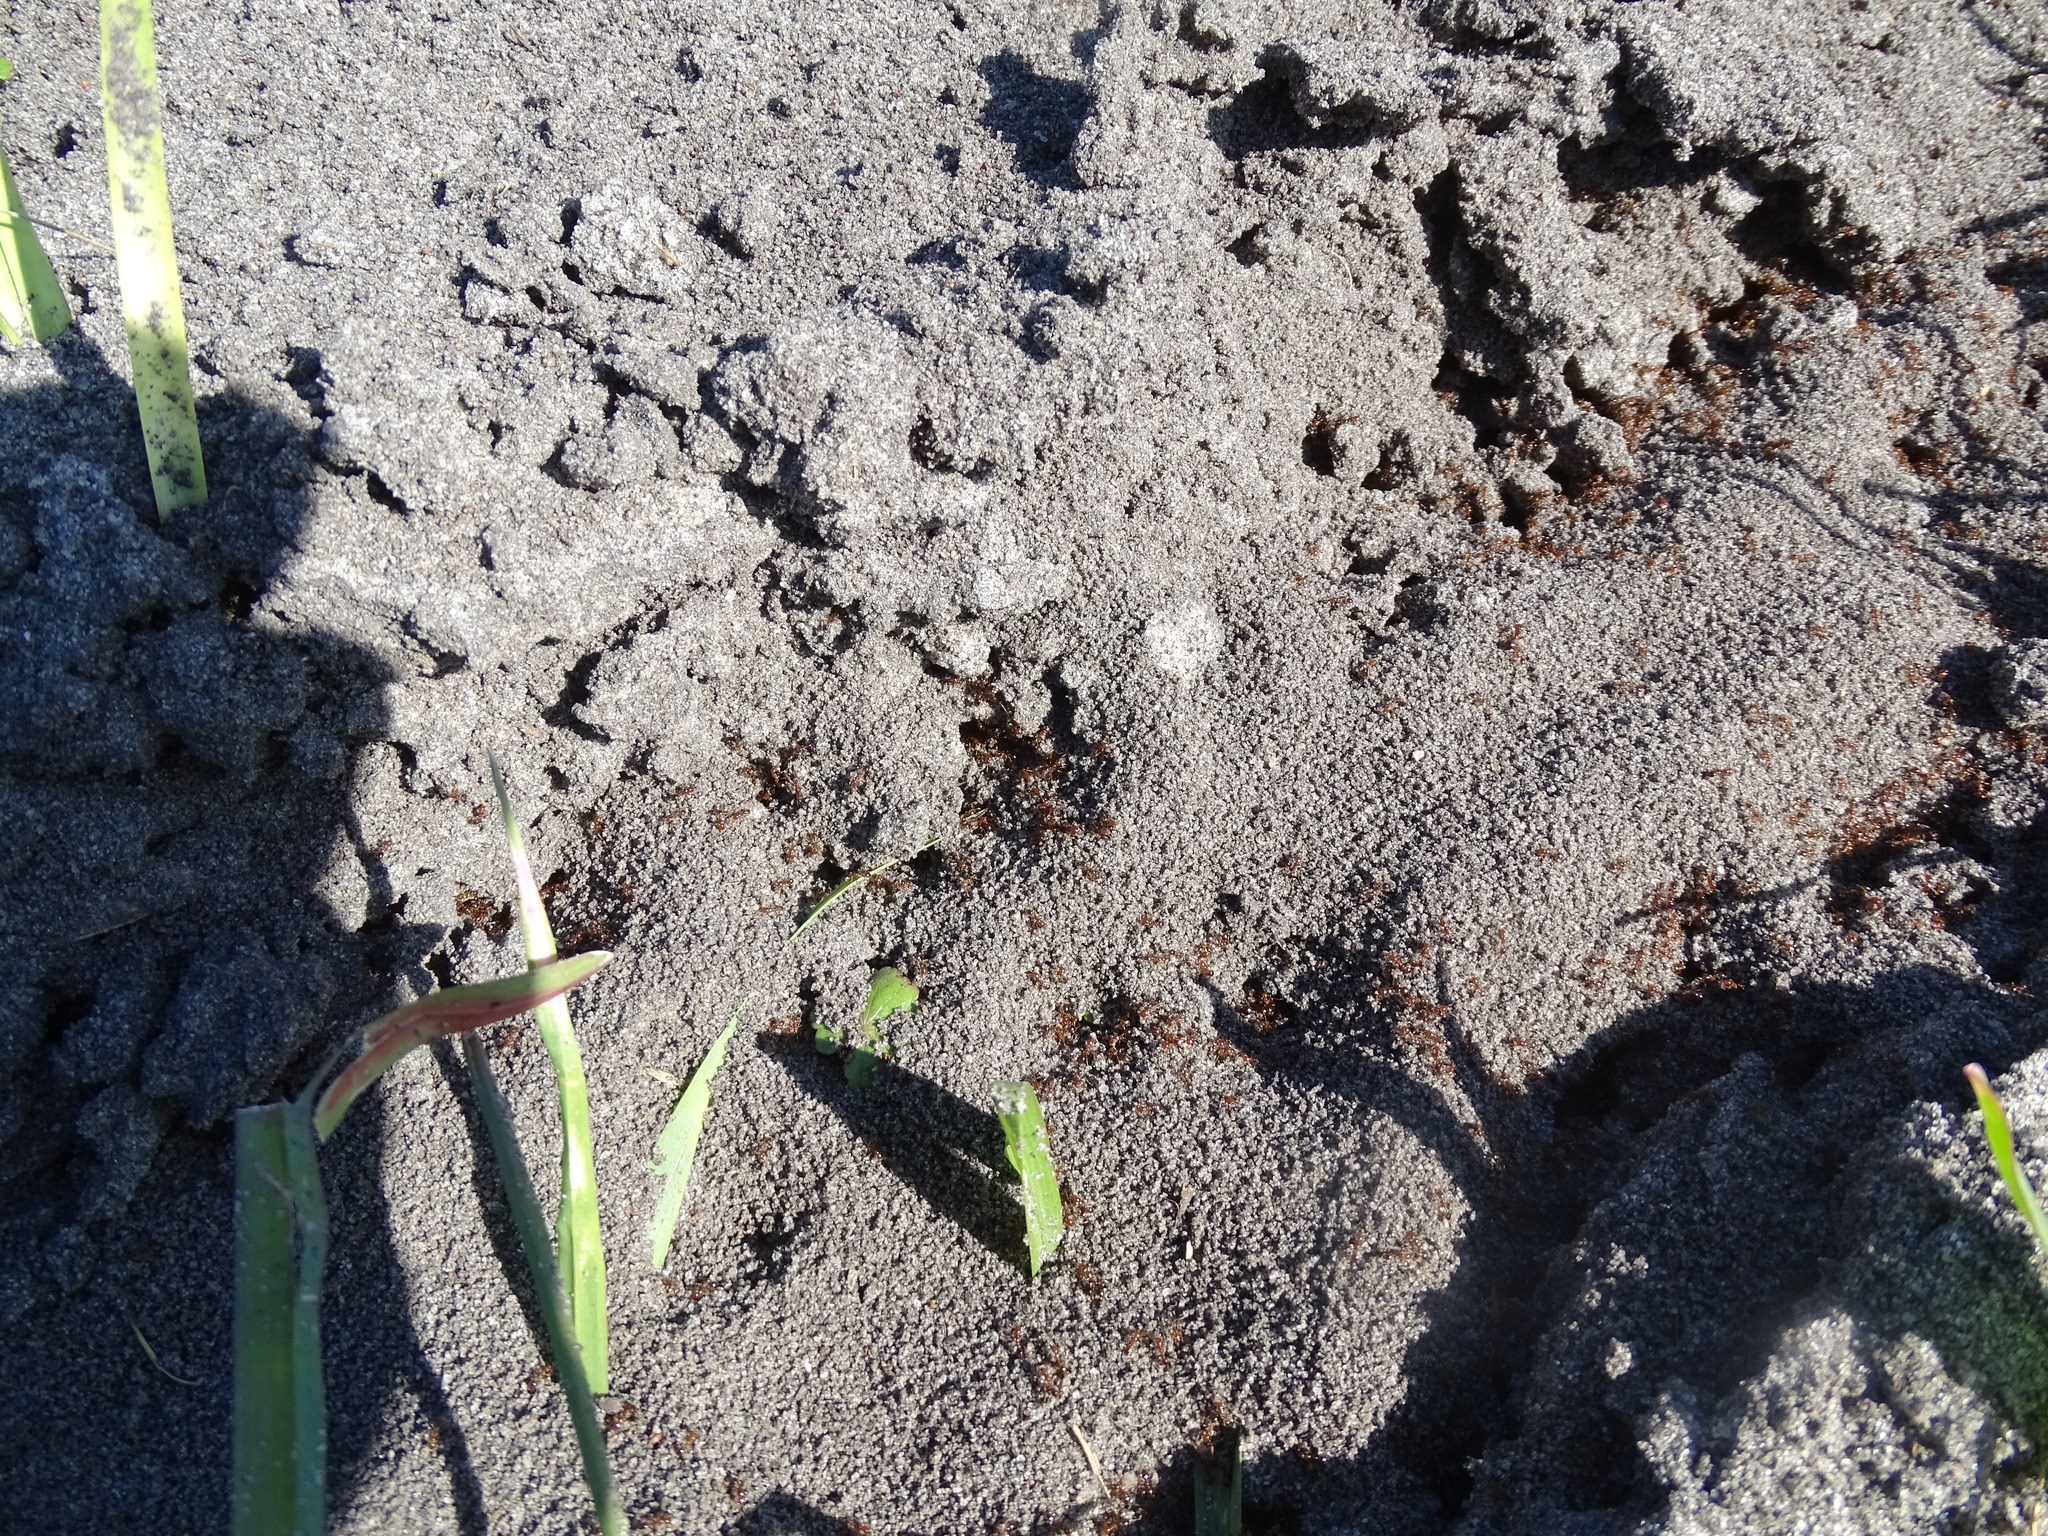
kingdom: Animalia
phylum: Arthropoda
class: Insecta
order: Hymenoptera
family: Formicidae
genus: Solenopsis
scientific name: Solenopsis invicta
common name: Red imported fire ant
